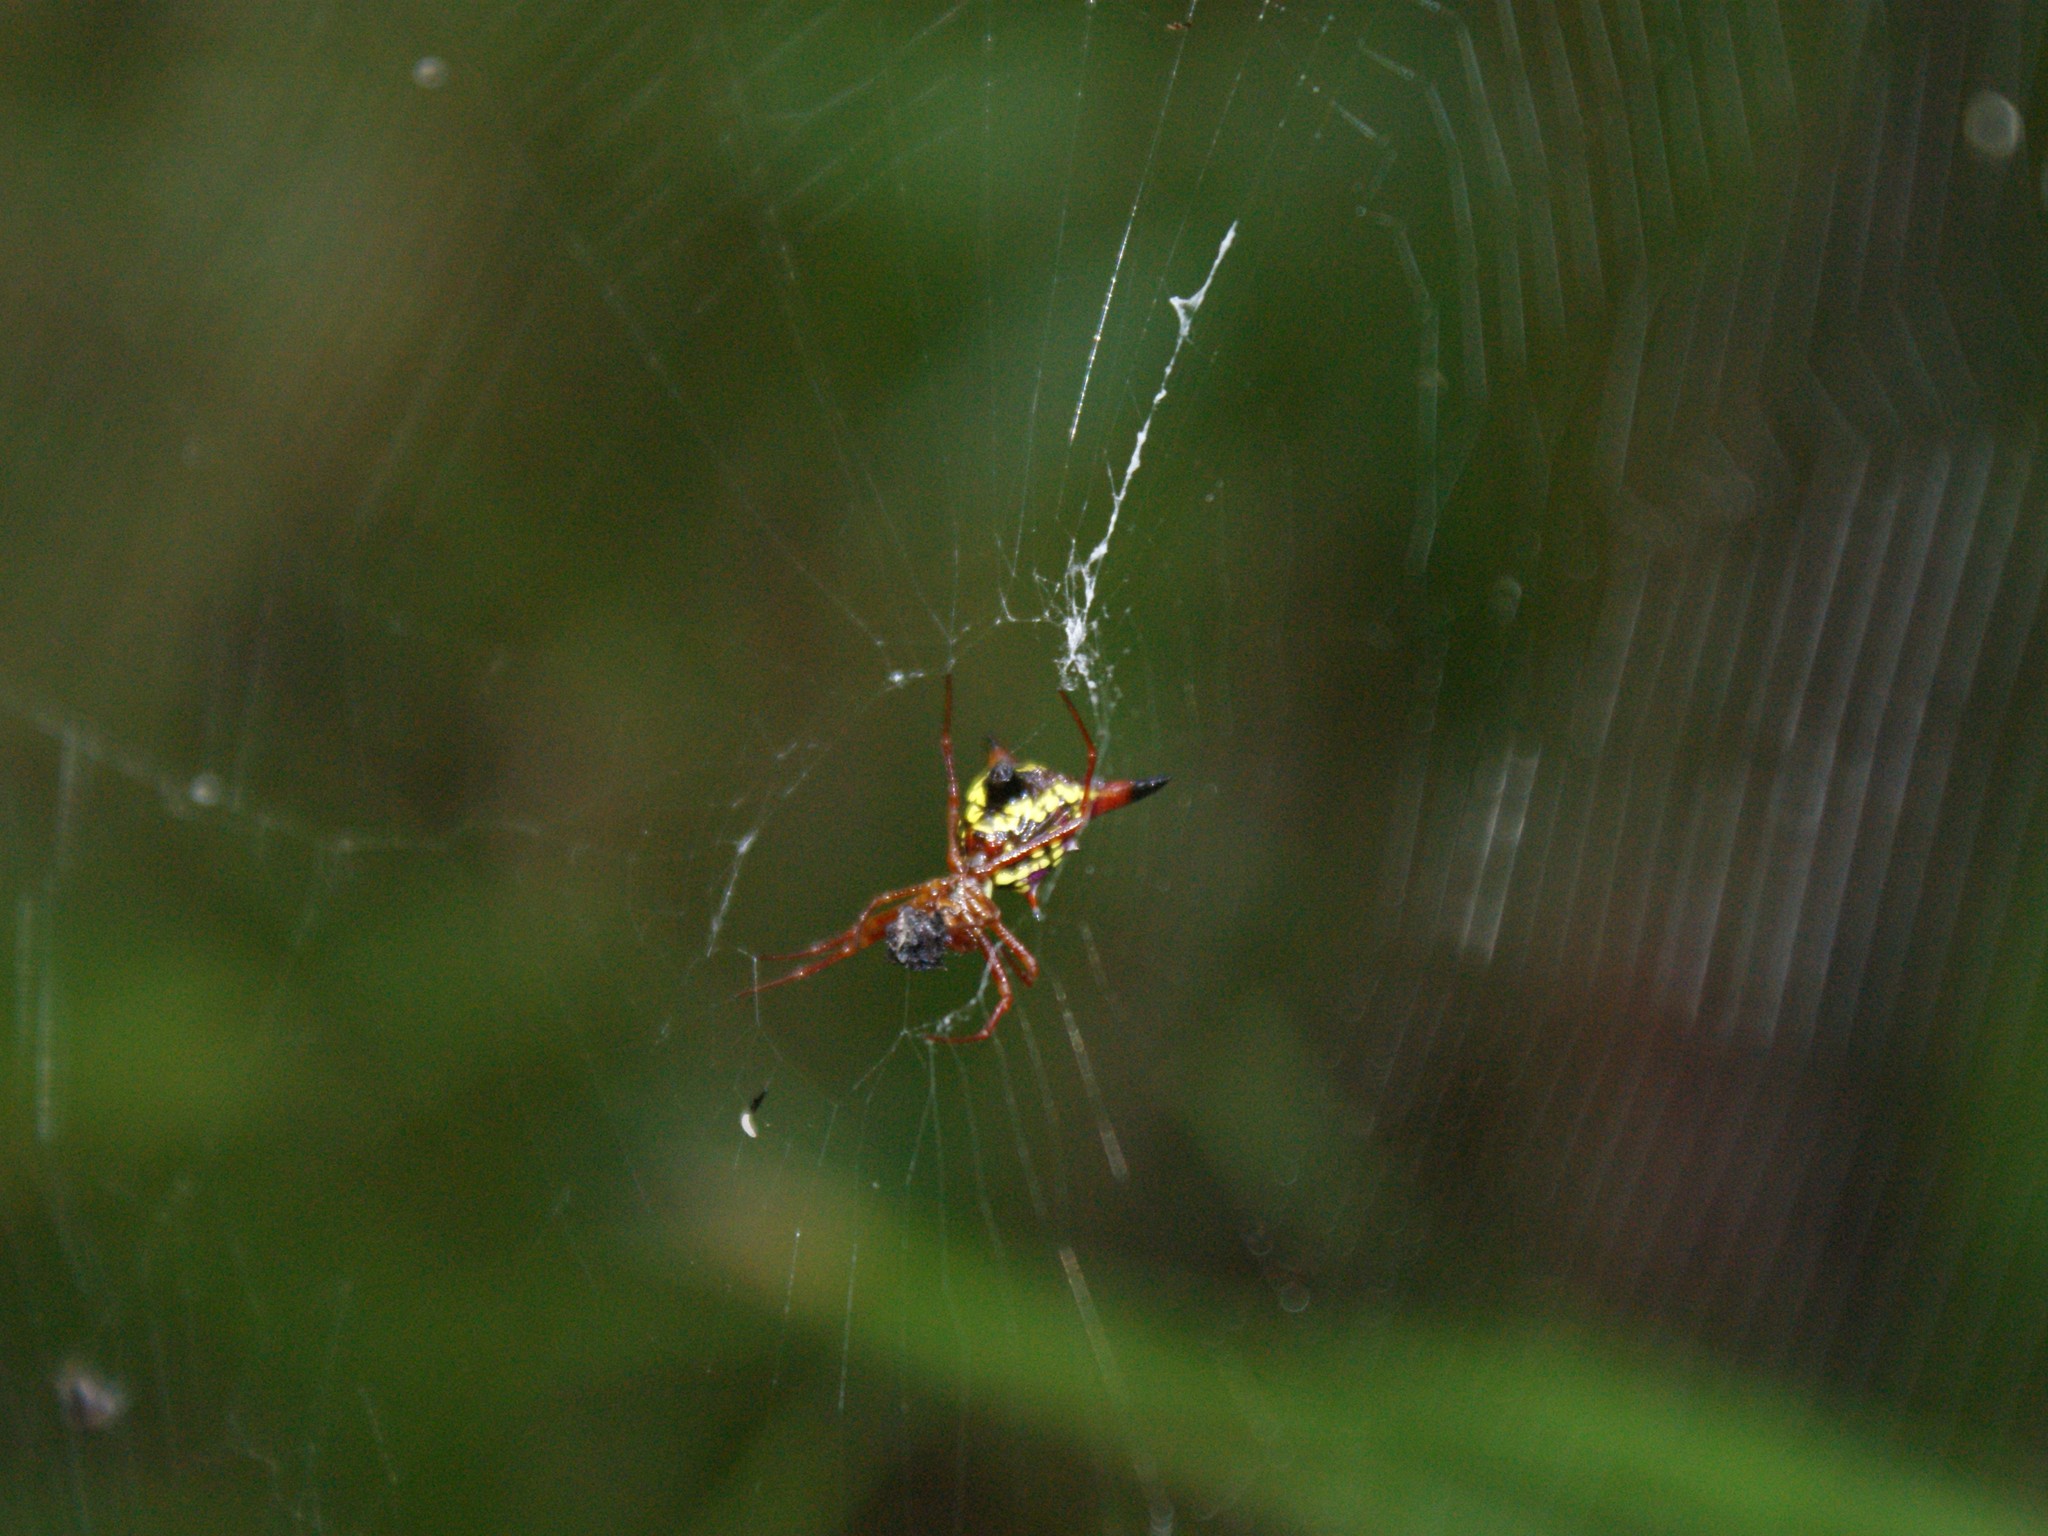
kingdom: Animalia
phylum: Arthropoda
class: Arachnida
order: Araneae
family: Araneidae
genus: Micrathena
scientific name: Micrathena sagittata
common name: Orb weavers
